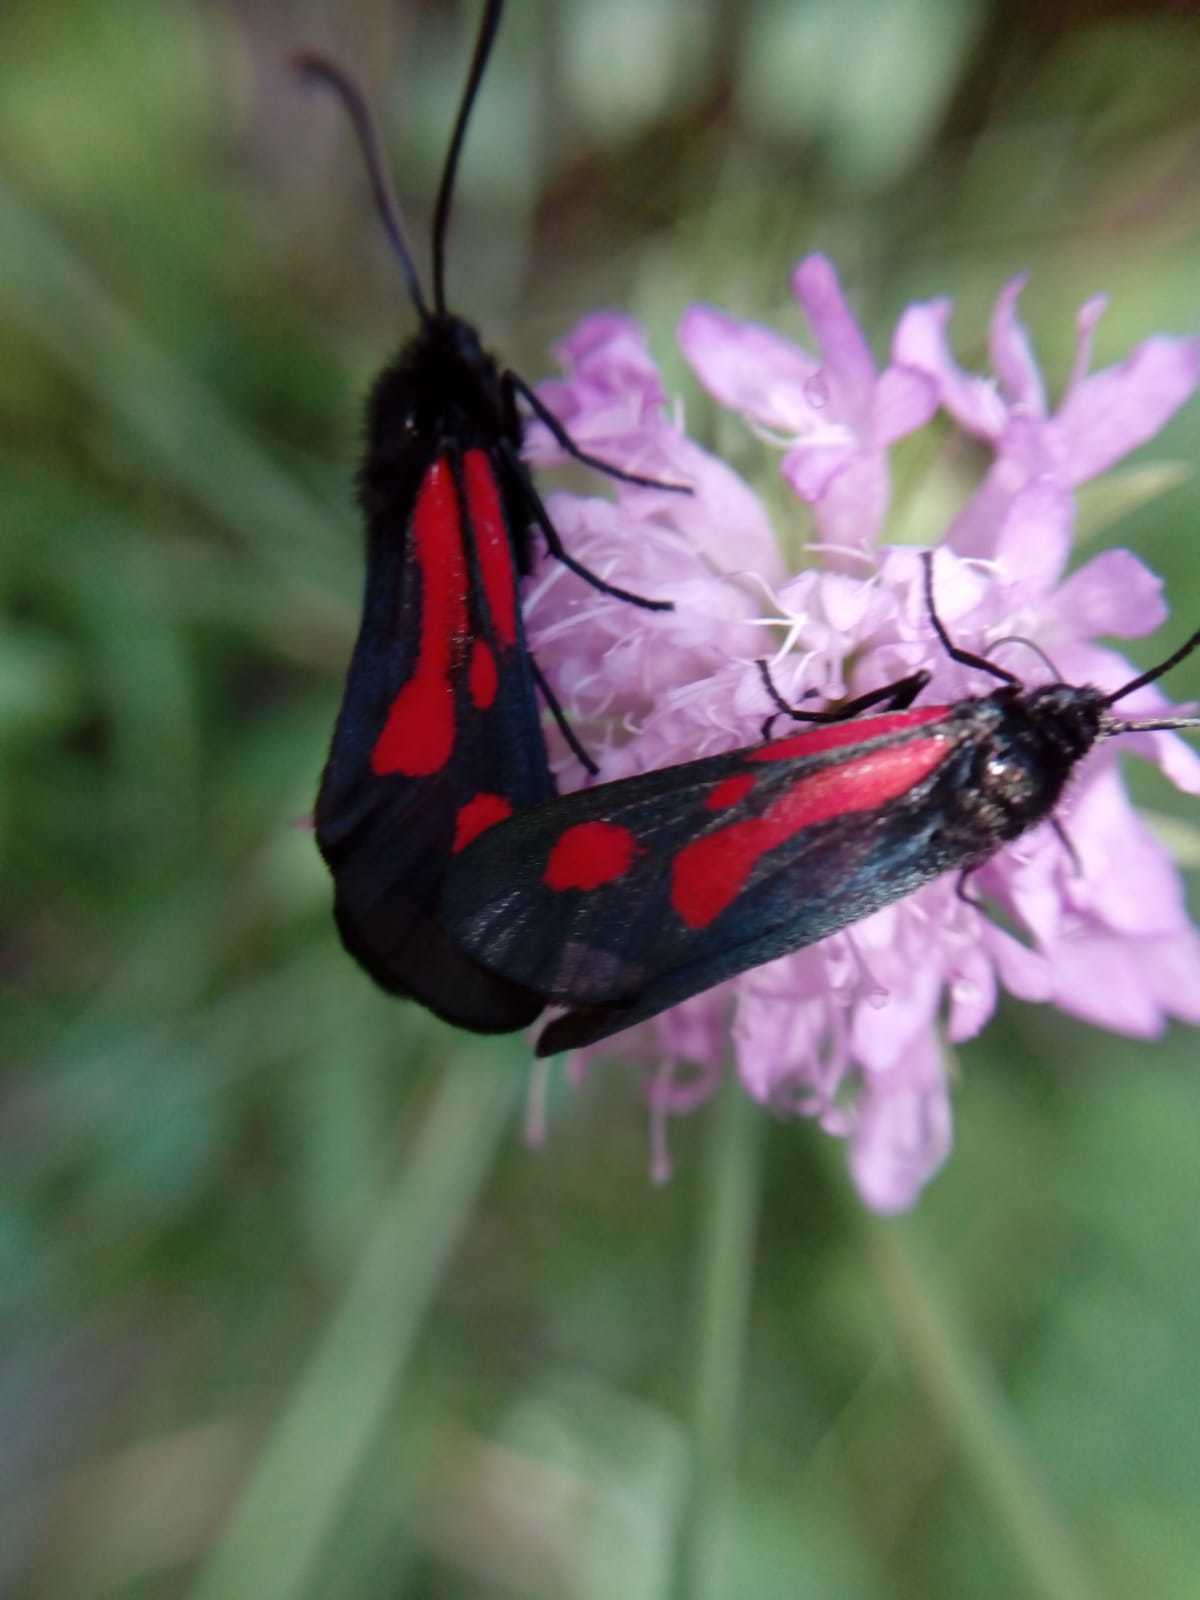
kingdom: Animalia
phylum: Arthropoda
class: Insecta
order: Lepidoptera
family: Zygaenidae
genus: Zygaena
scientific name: Zygaena romeo
